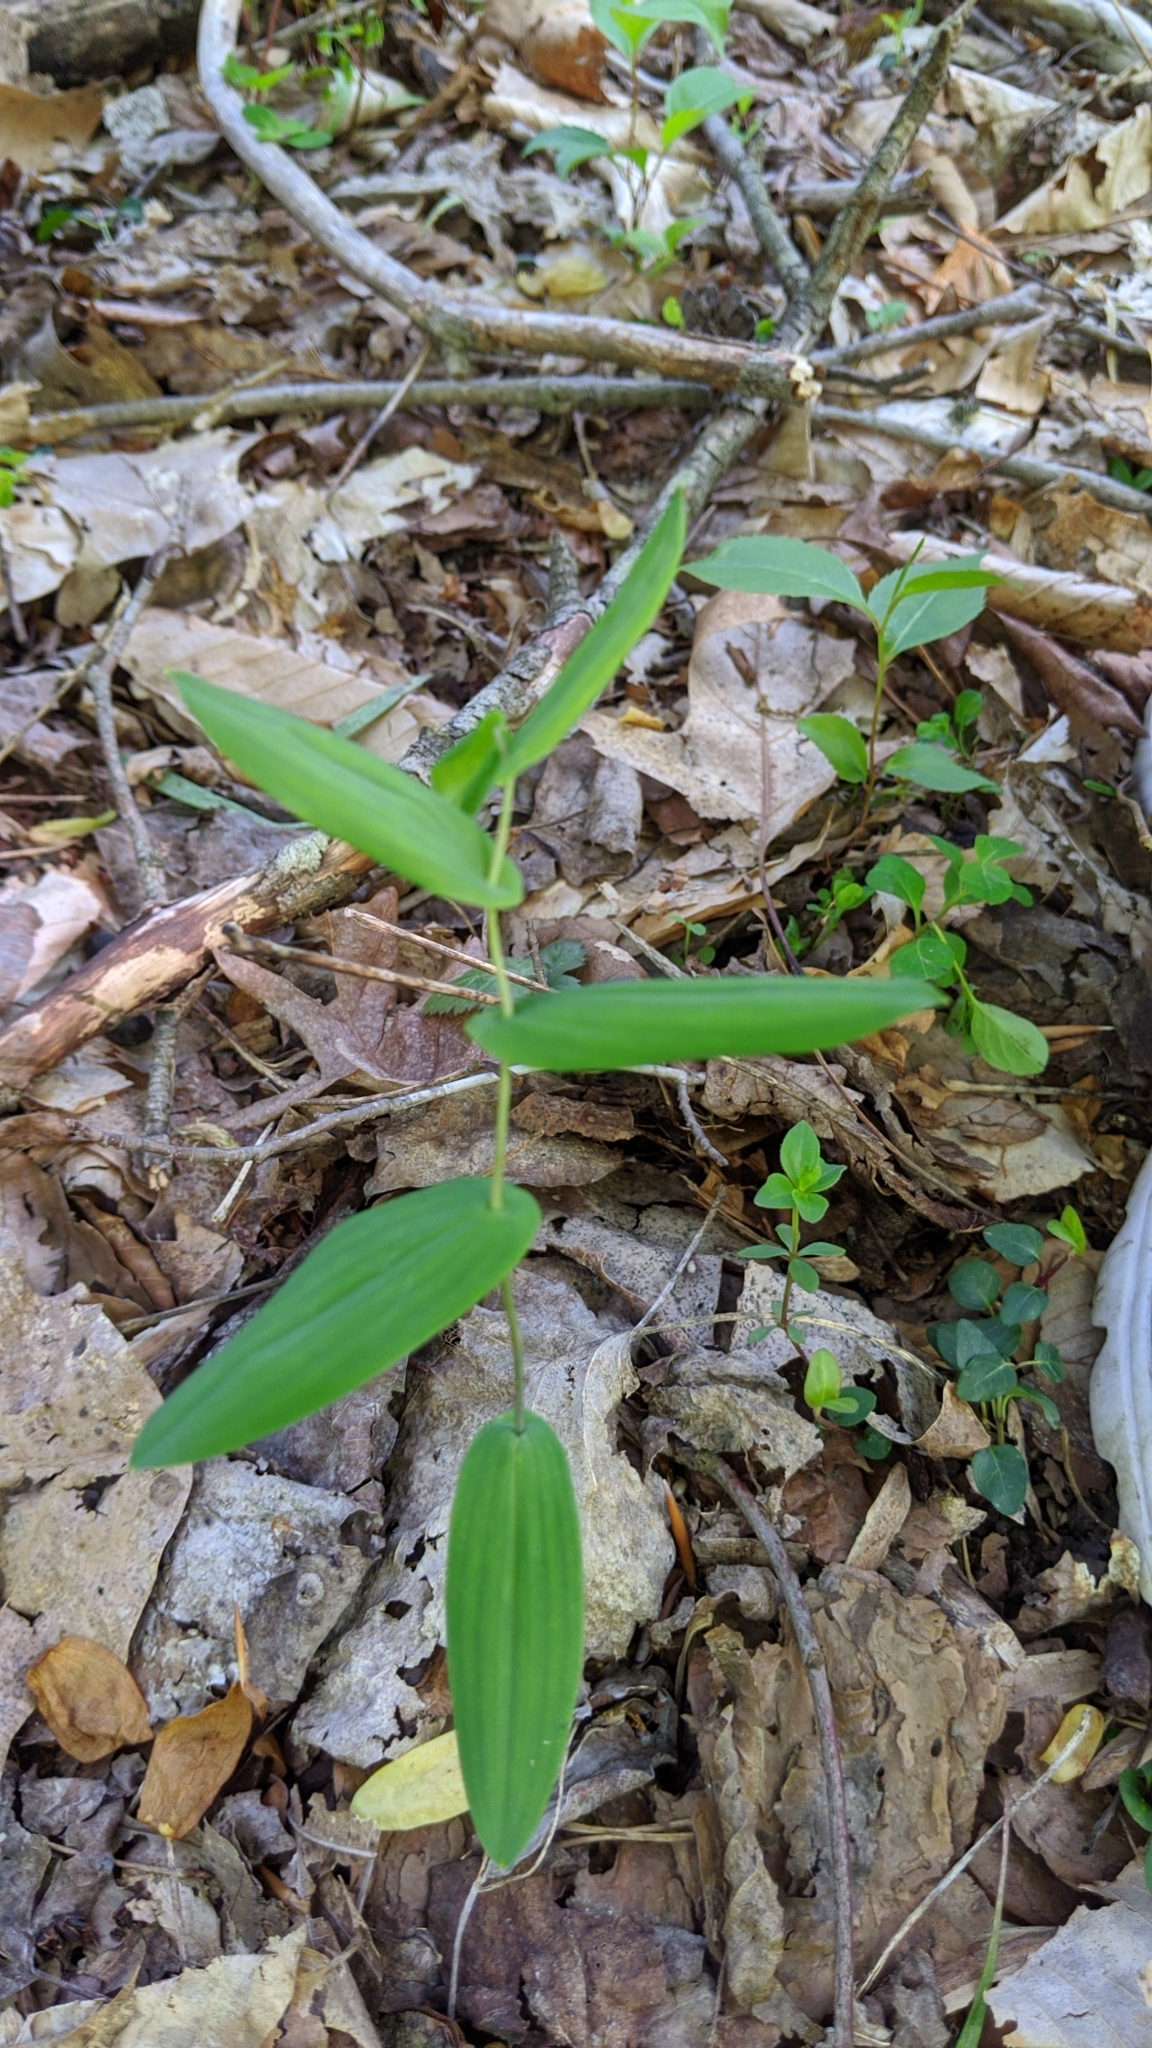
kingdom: Plantae
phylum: Tracheophyta
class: Liliopsida
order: Liliales
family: Colchicaceae
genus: Uvularia
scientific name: Uvularia perfoliata
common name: Perfoliate bellwort
